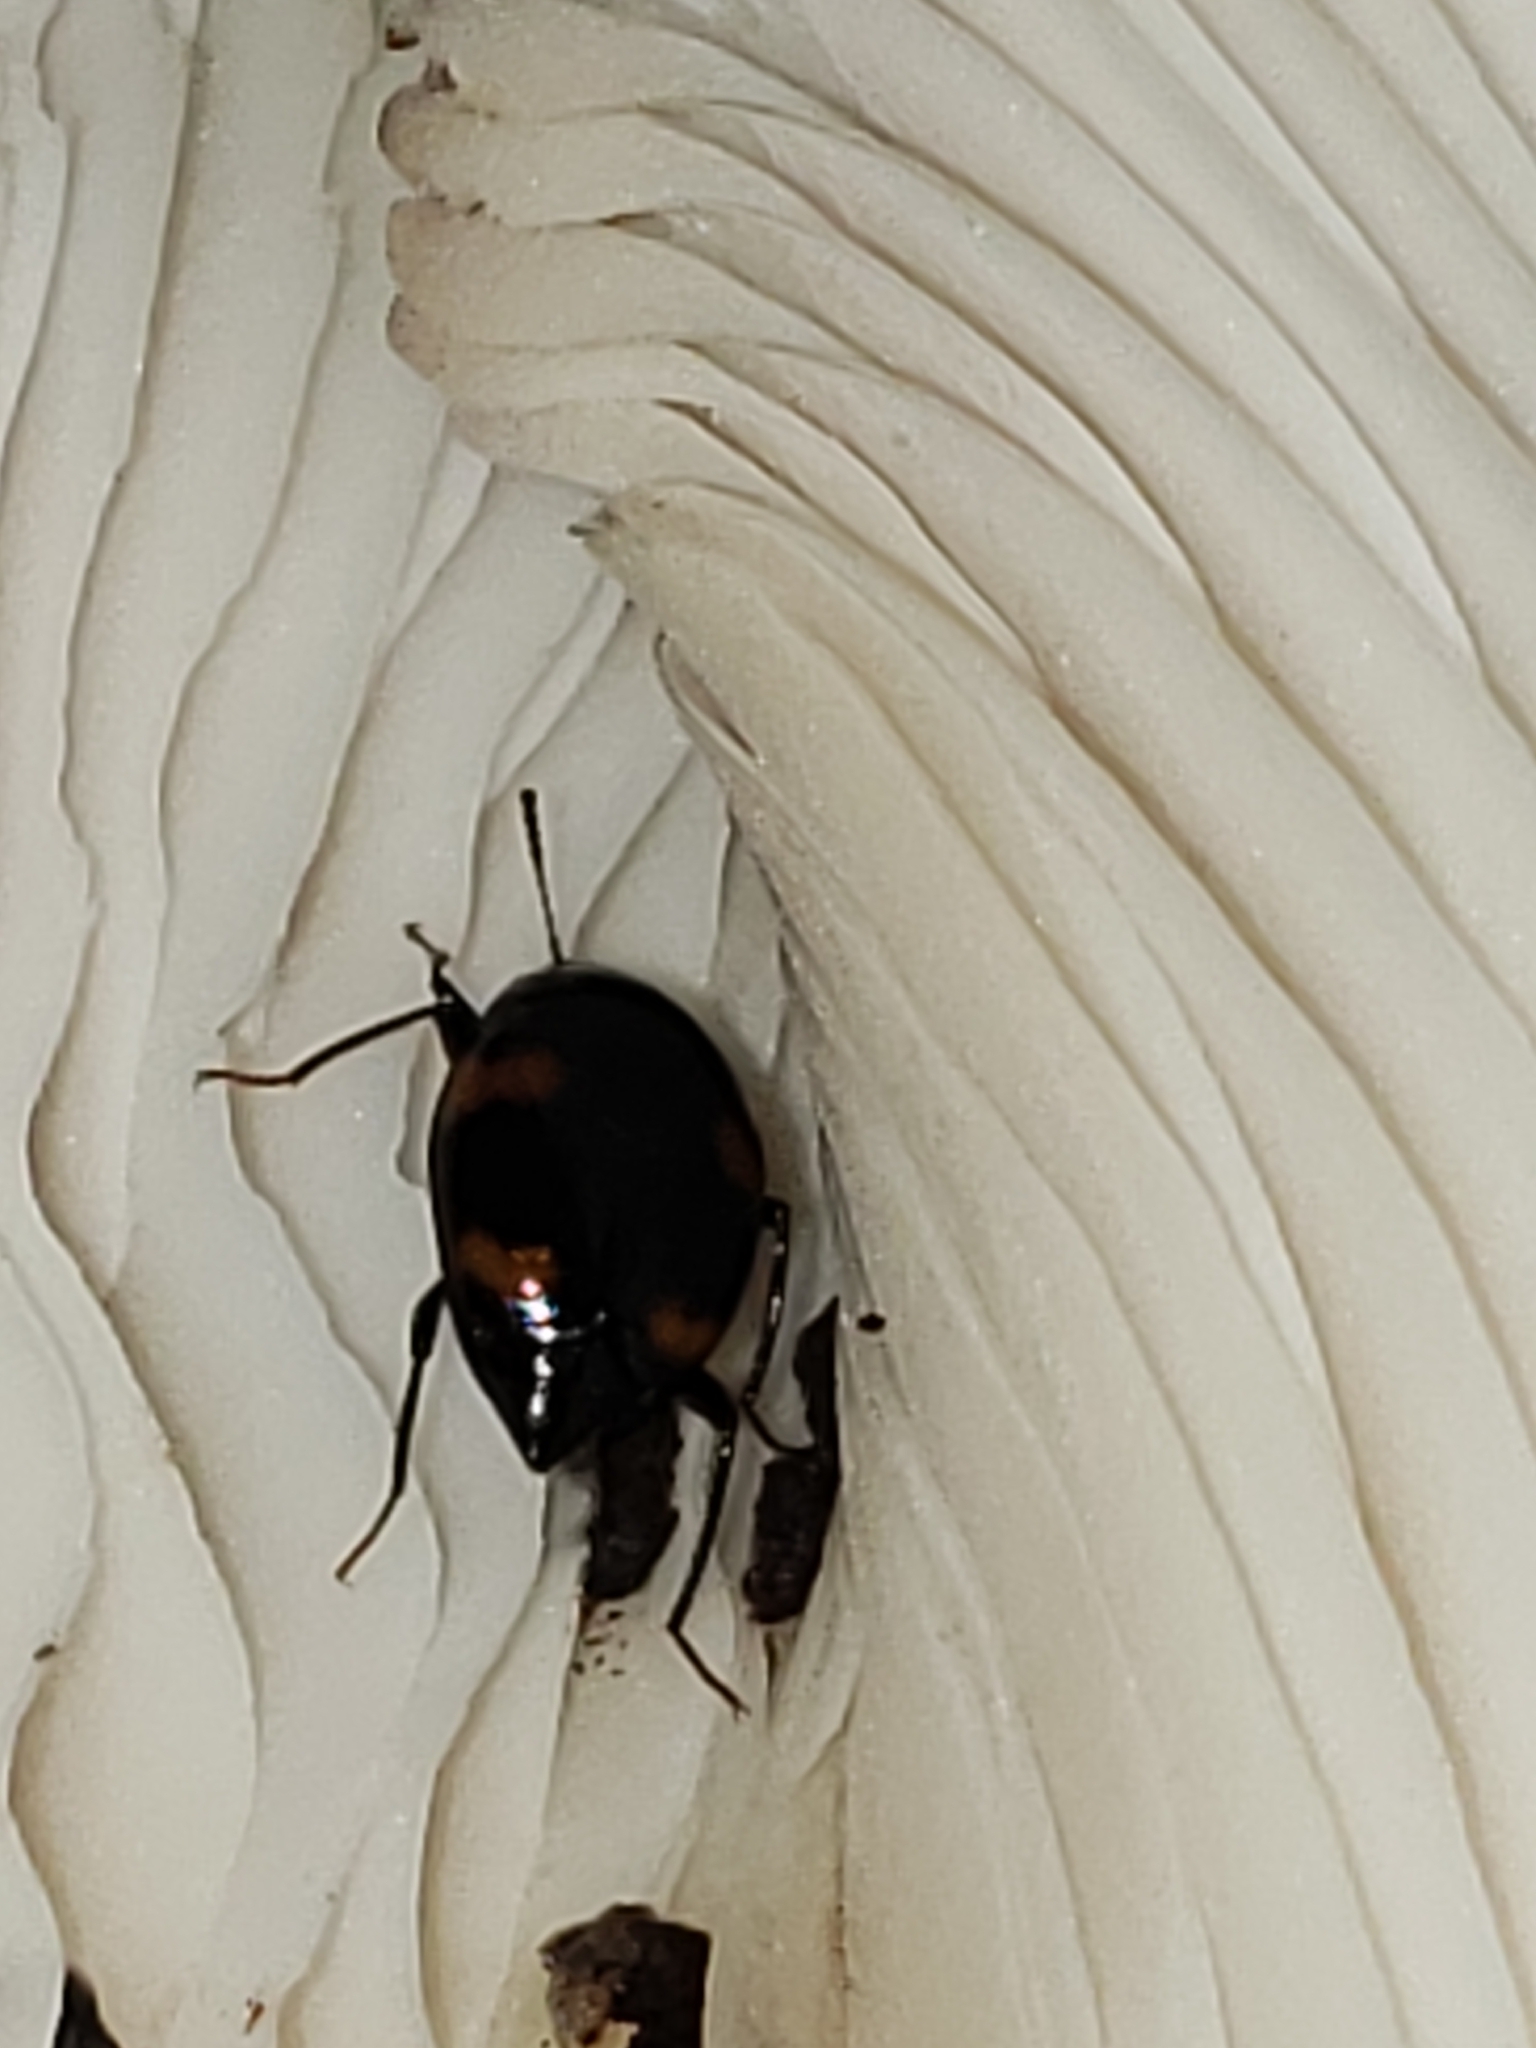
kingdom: Animalia
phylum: Arthropoda
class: Insecta
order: Coleoptera
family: Staphylinidae
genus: Scaphidium
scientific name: Scaphidium quadriguttatum
